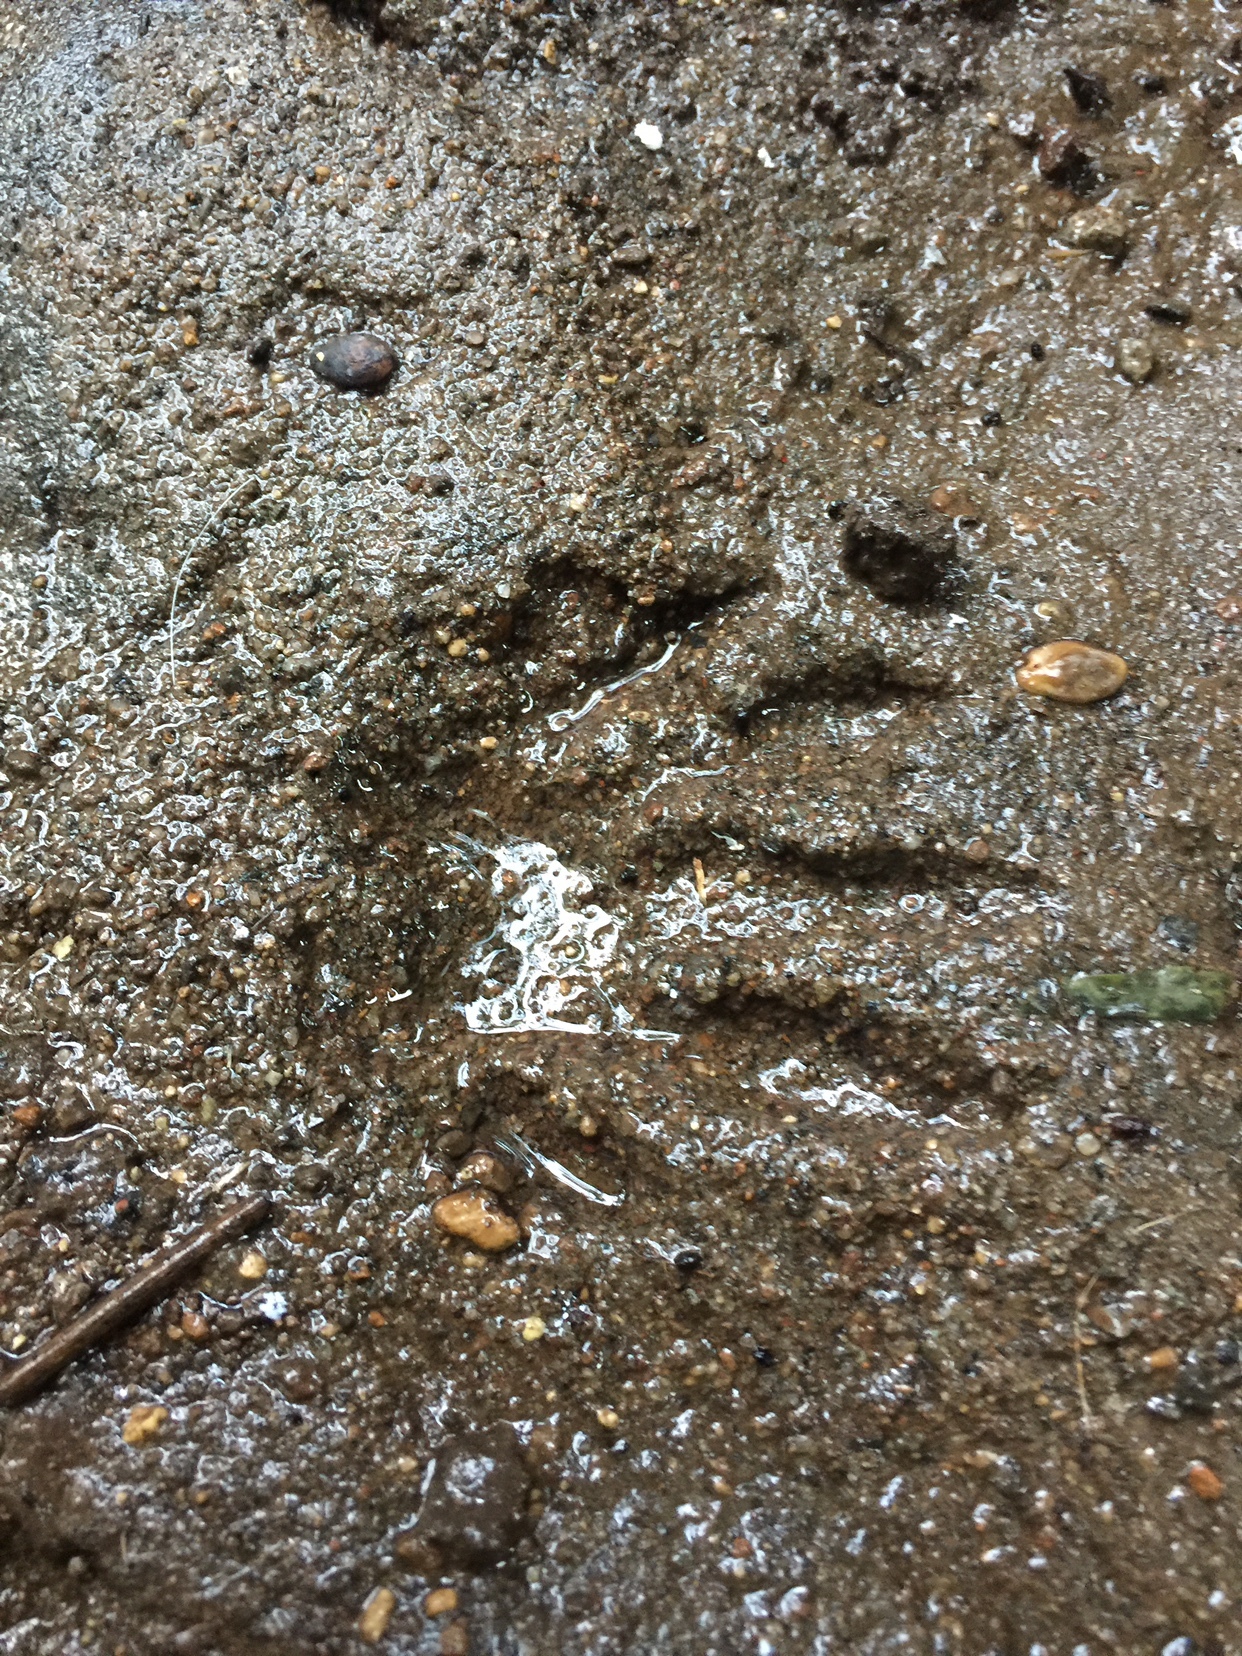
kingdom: Animalia
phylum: Chordata
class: Mammalia
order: Carnivora
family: Procyonidae
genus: Procyon
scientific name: Procyon lotor
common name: Raccoon
